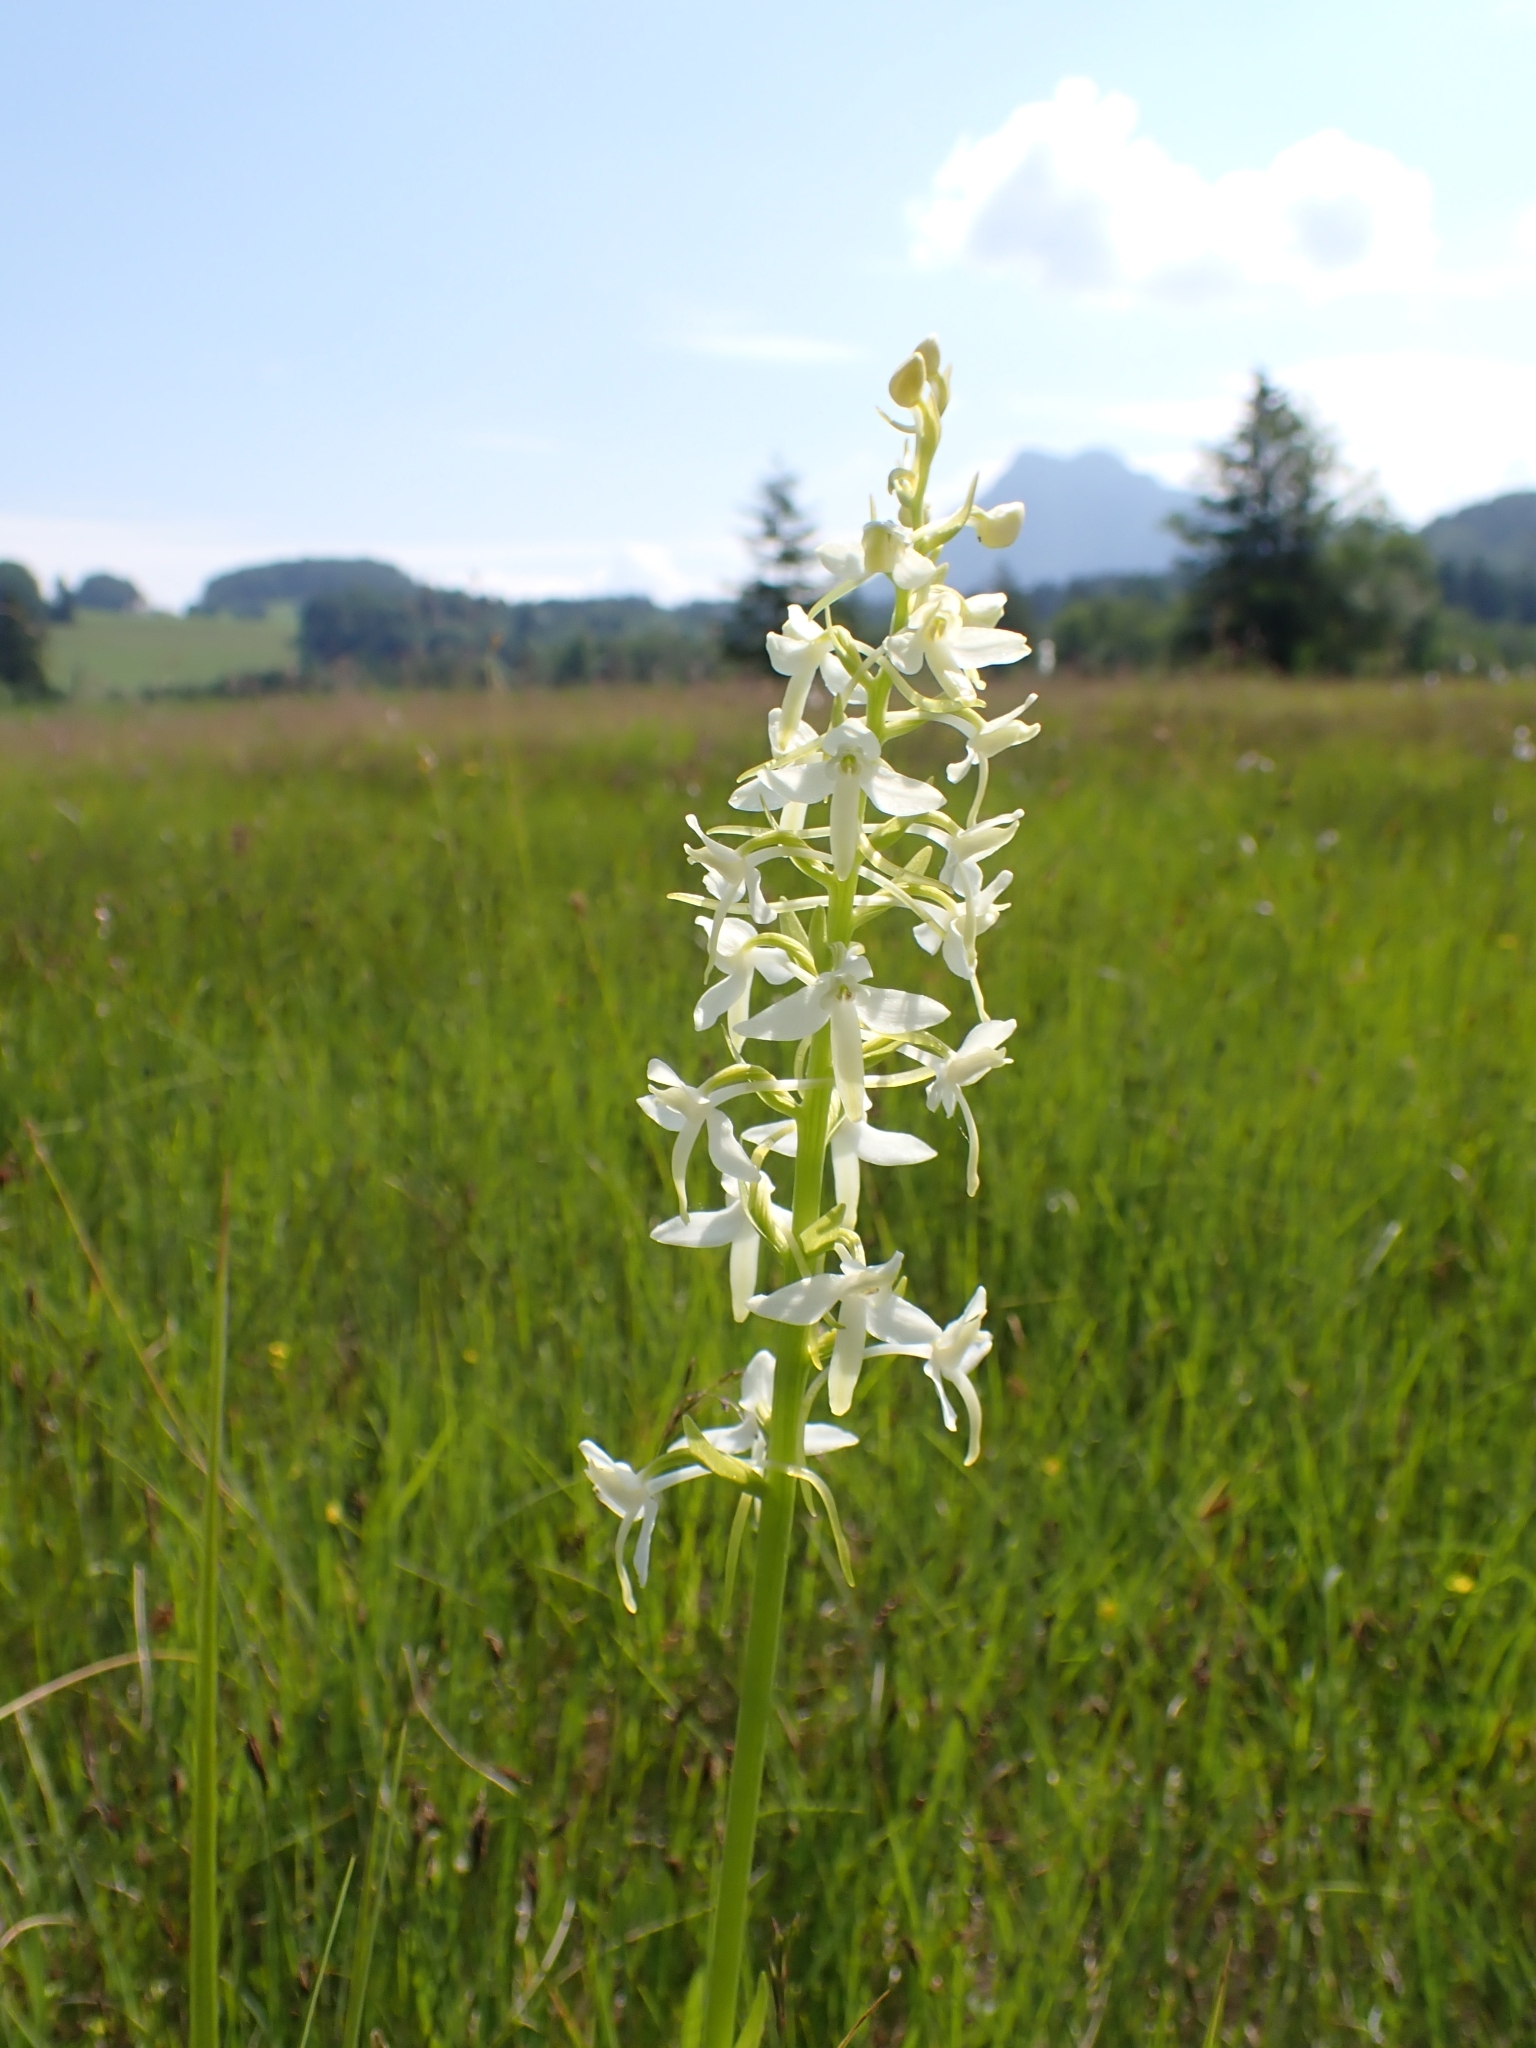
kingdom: Plantae
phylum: Tracheophyta
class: Liliopsida
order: Asparagales
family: Orchidaceae
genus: Platanthera
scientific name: Platanthera bifolia
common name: Lesser butterfly-orchid
